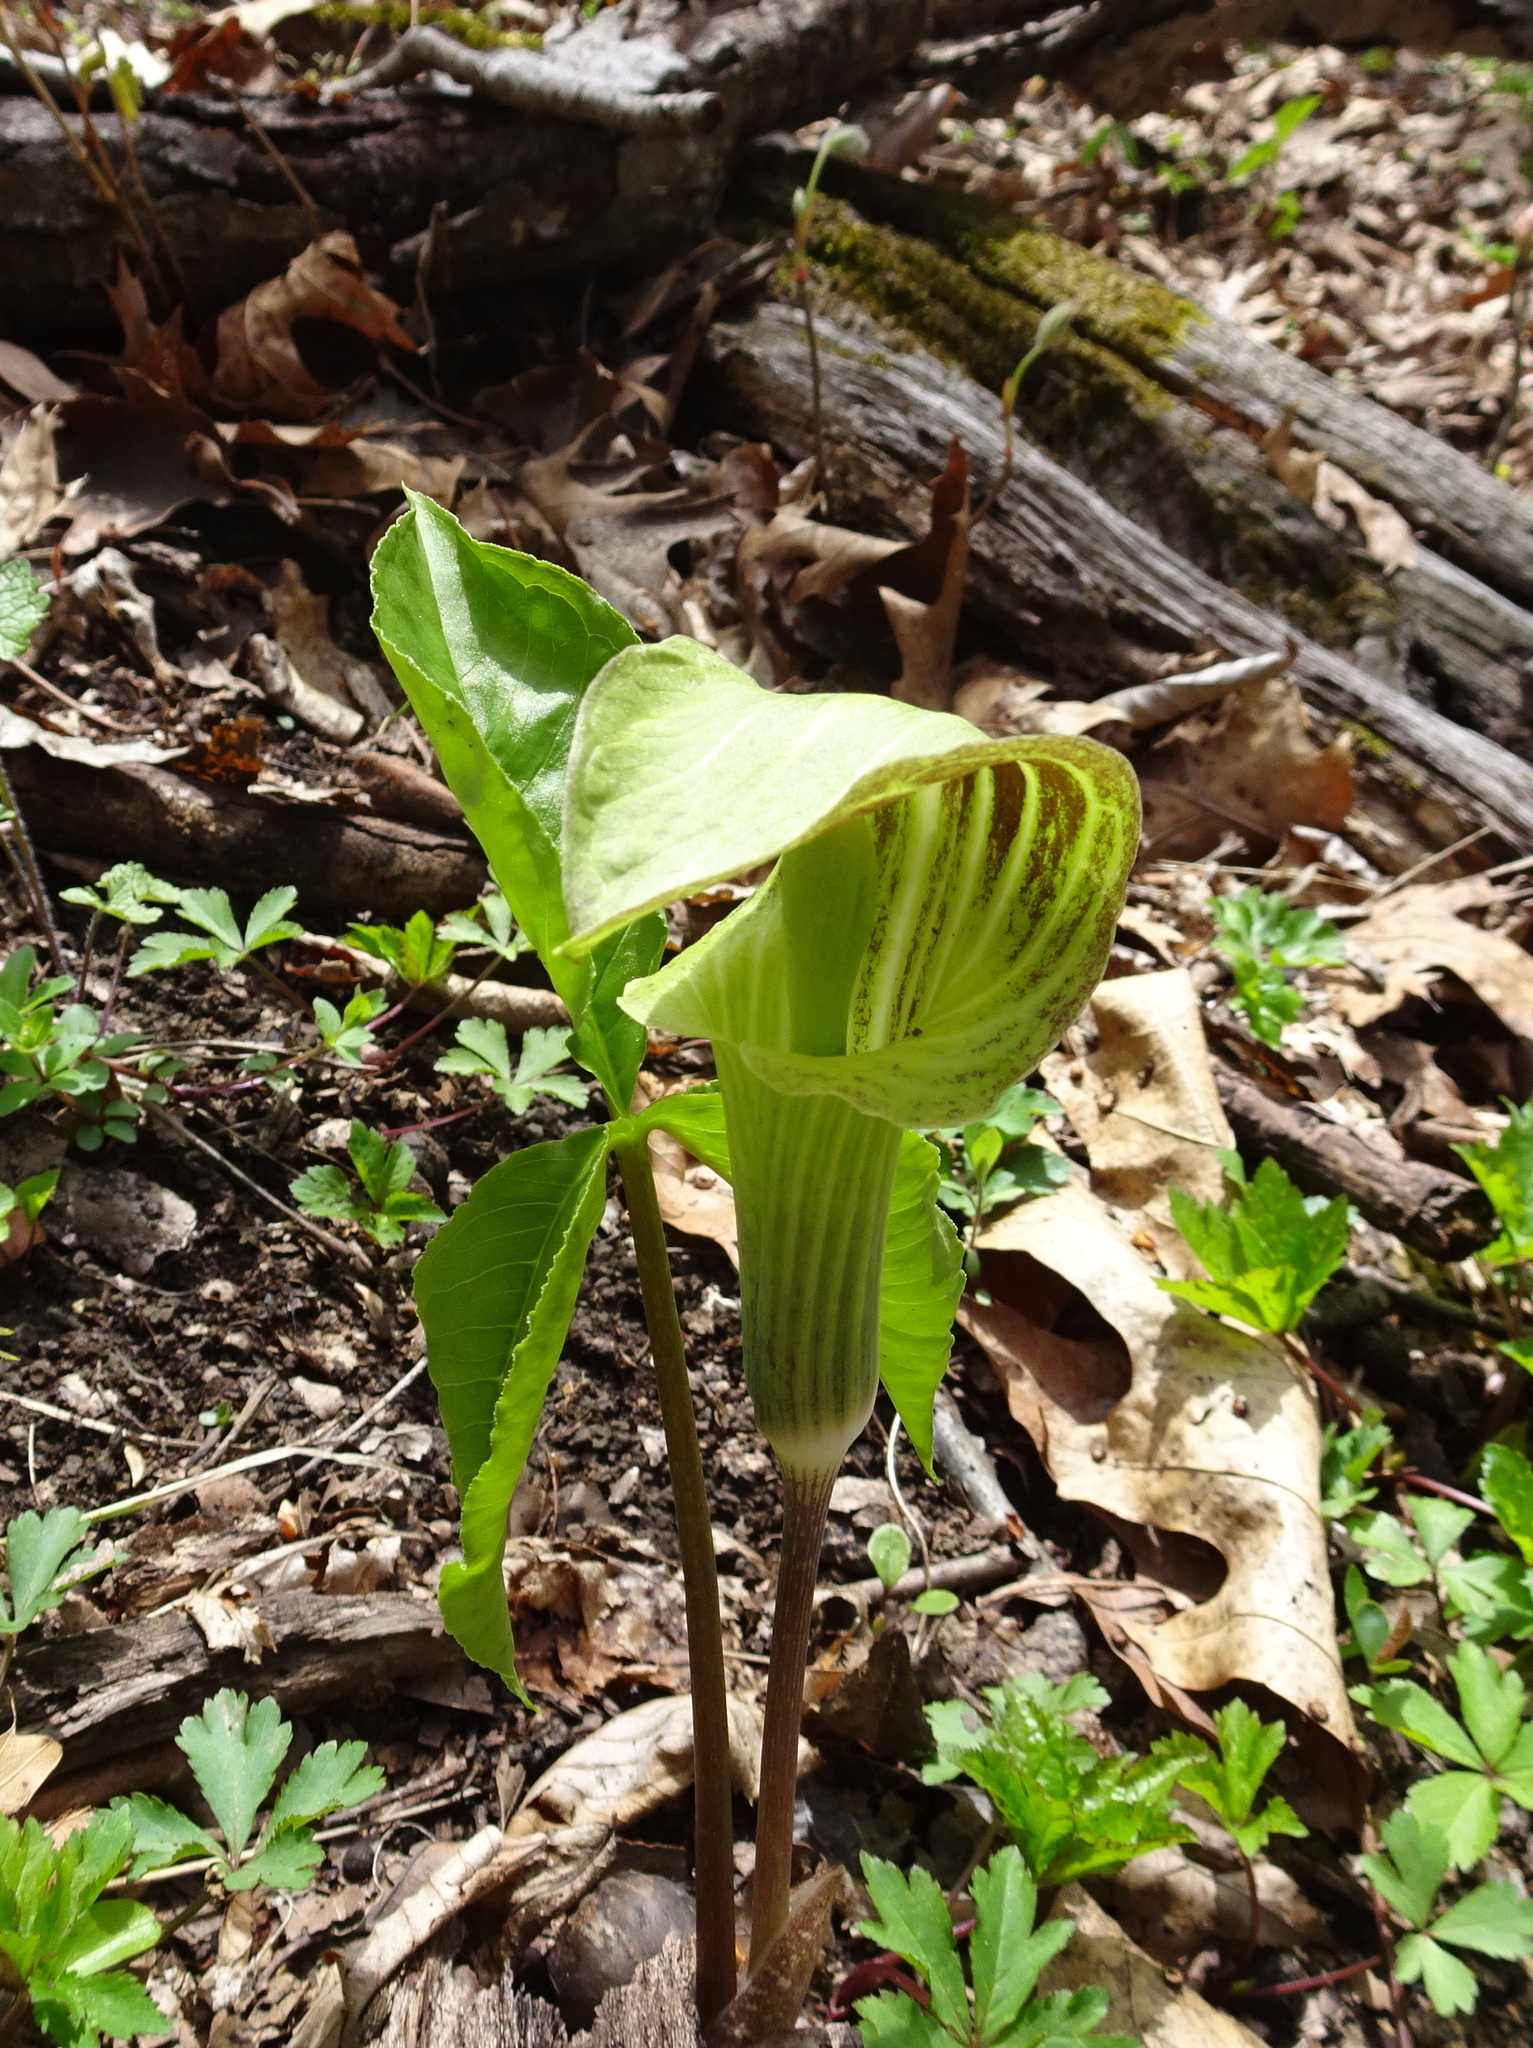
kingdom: Plantae
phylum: Tracheophyta
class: Liliopsida
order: Alismatales
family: Araceae
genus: Arisaema
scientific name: Arisaema triphyllum
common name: Jack-in-the-pulpit
